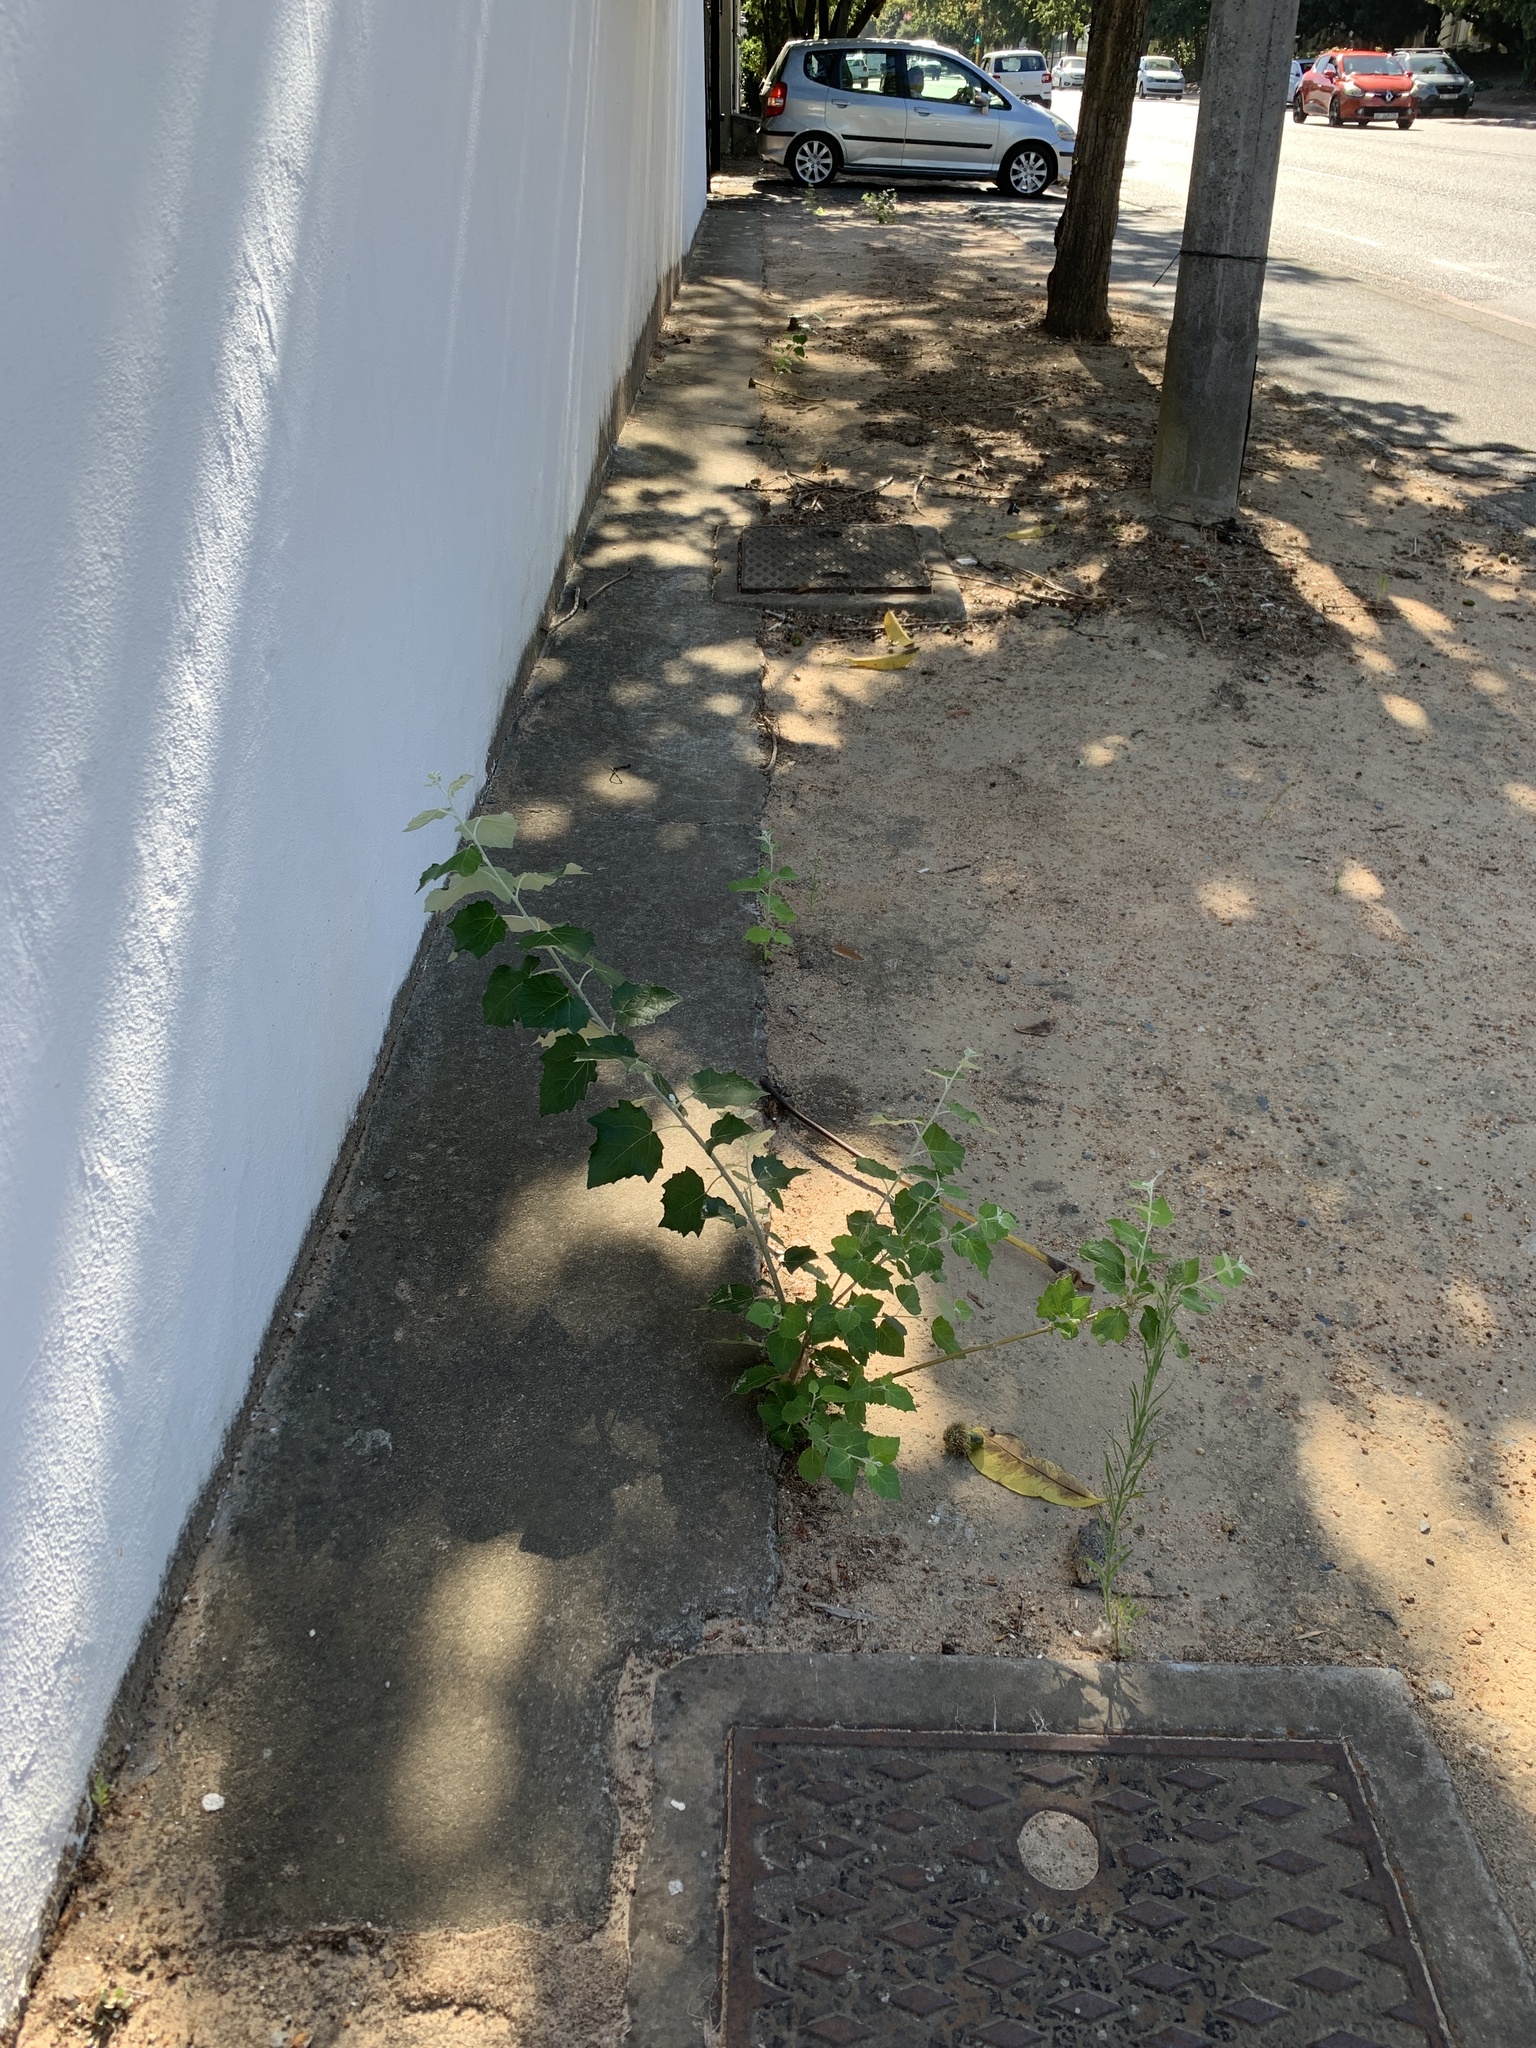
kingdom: Plantae
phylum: Tracheophyta
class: Magnoliopsida
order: Malpighiales
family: Salicaceae
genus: Populus
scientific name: Populus canescens
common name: Gray poplar
